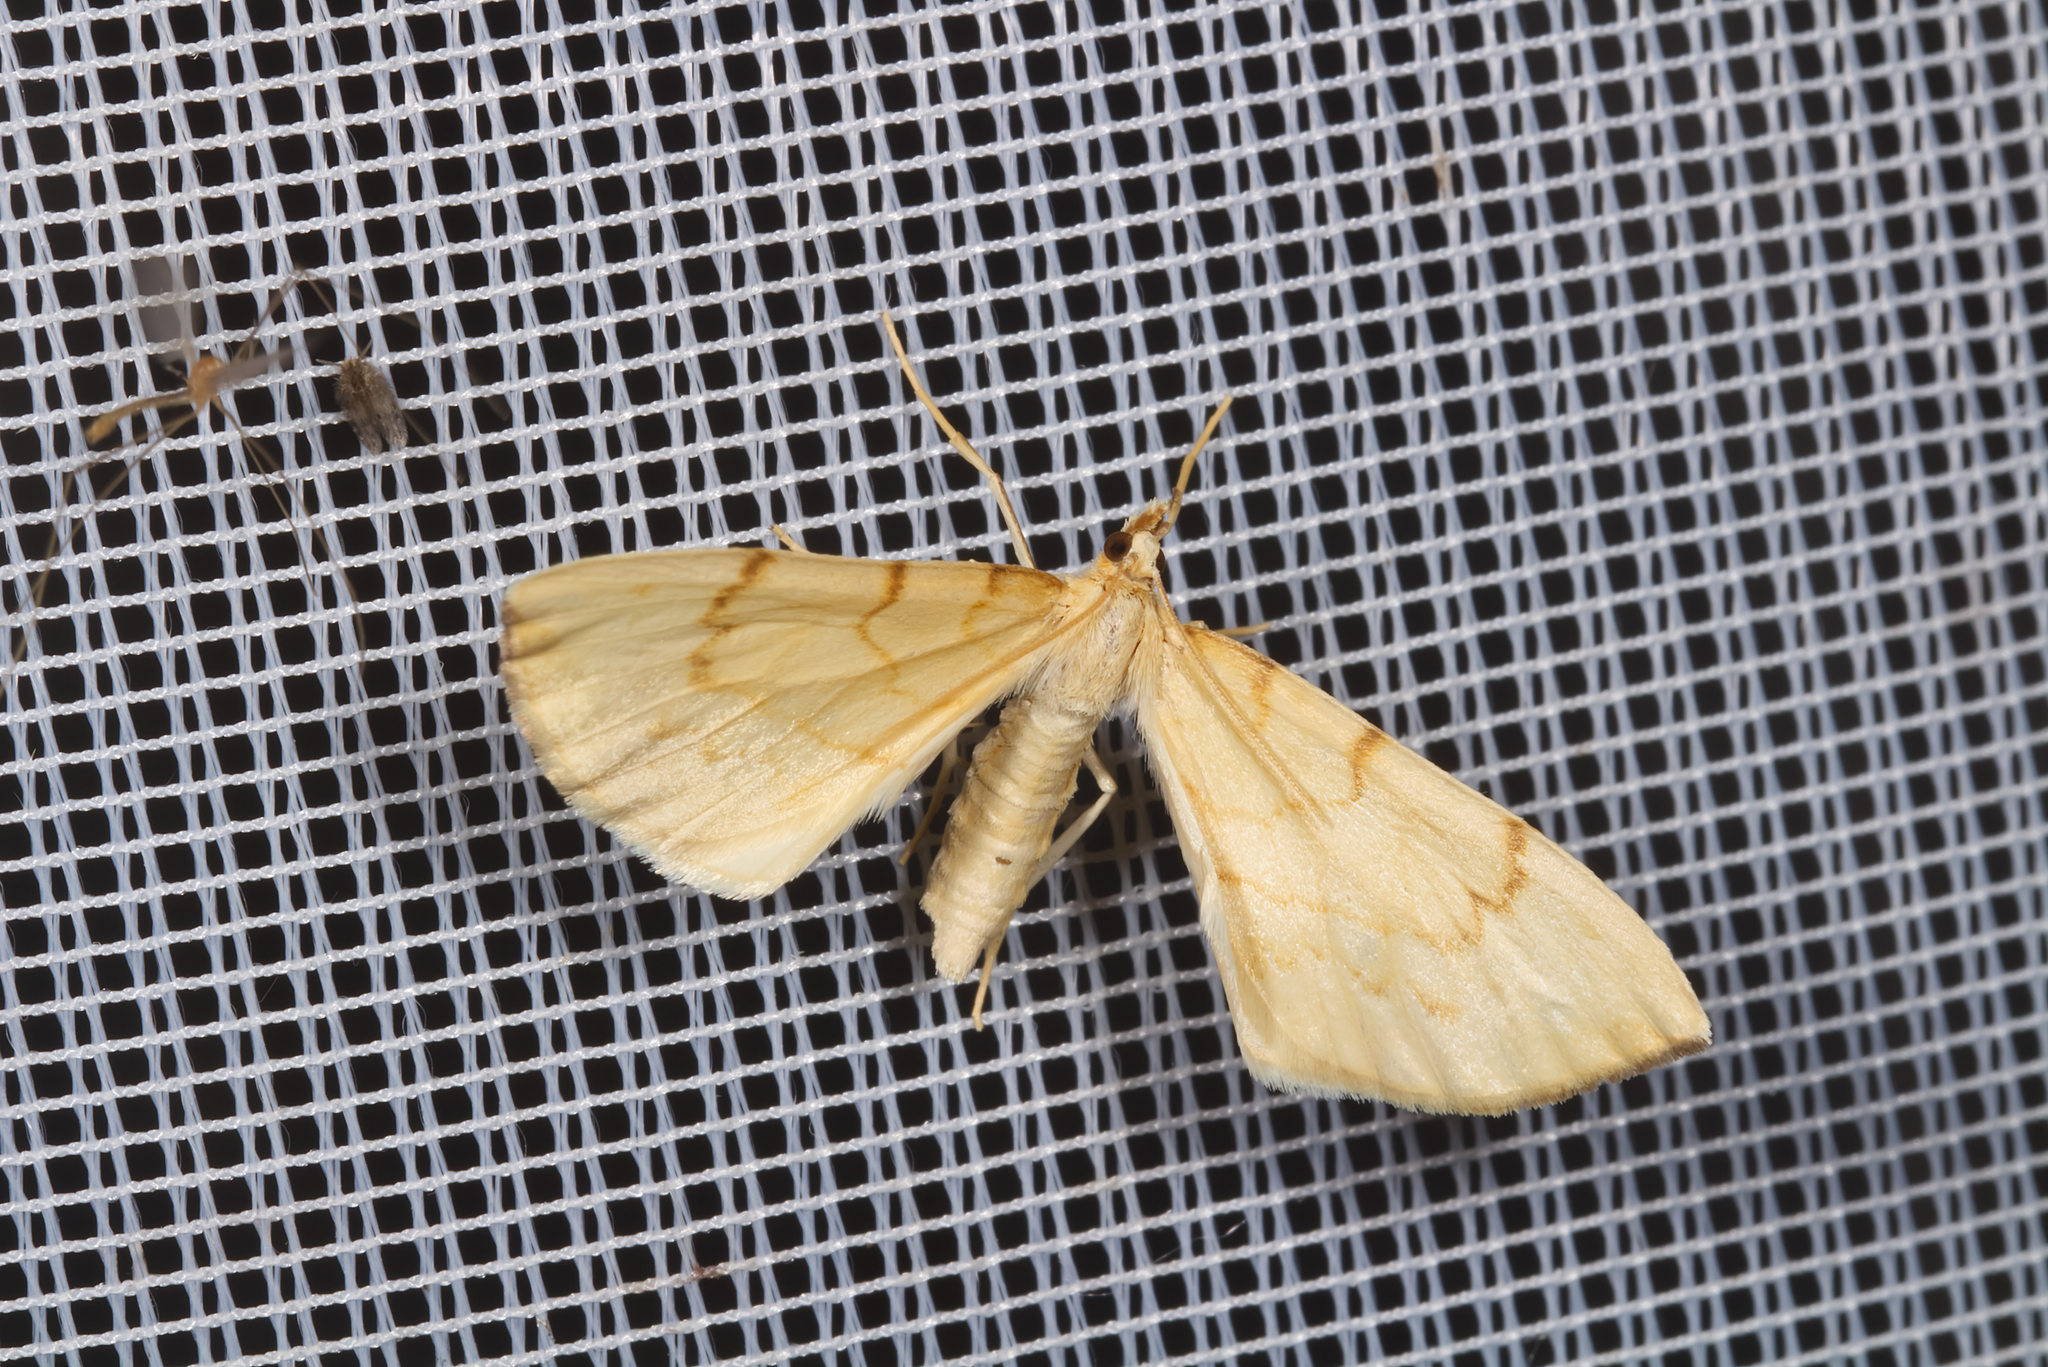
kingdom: Animalia
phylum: Arthropoda
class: Insecta
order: Lepidoptera
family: Geometridae
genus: Eulithis
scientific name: Eulithis pyraliata
